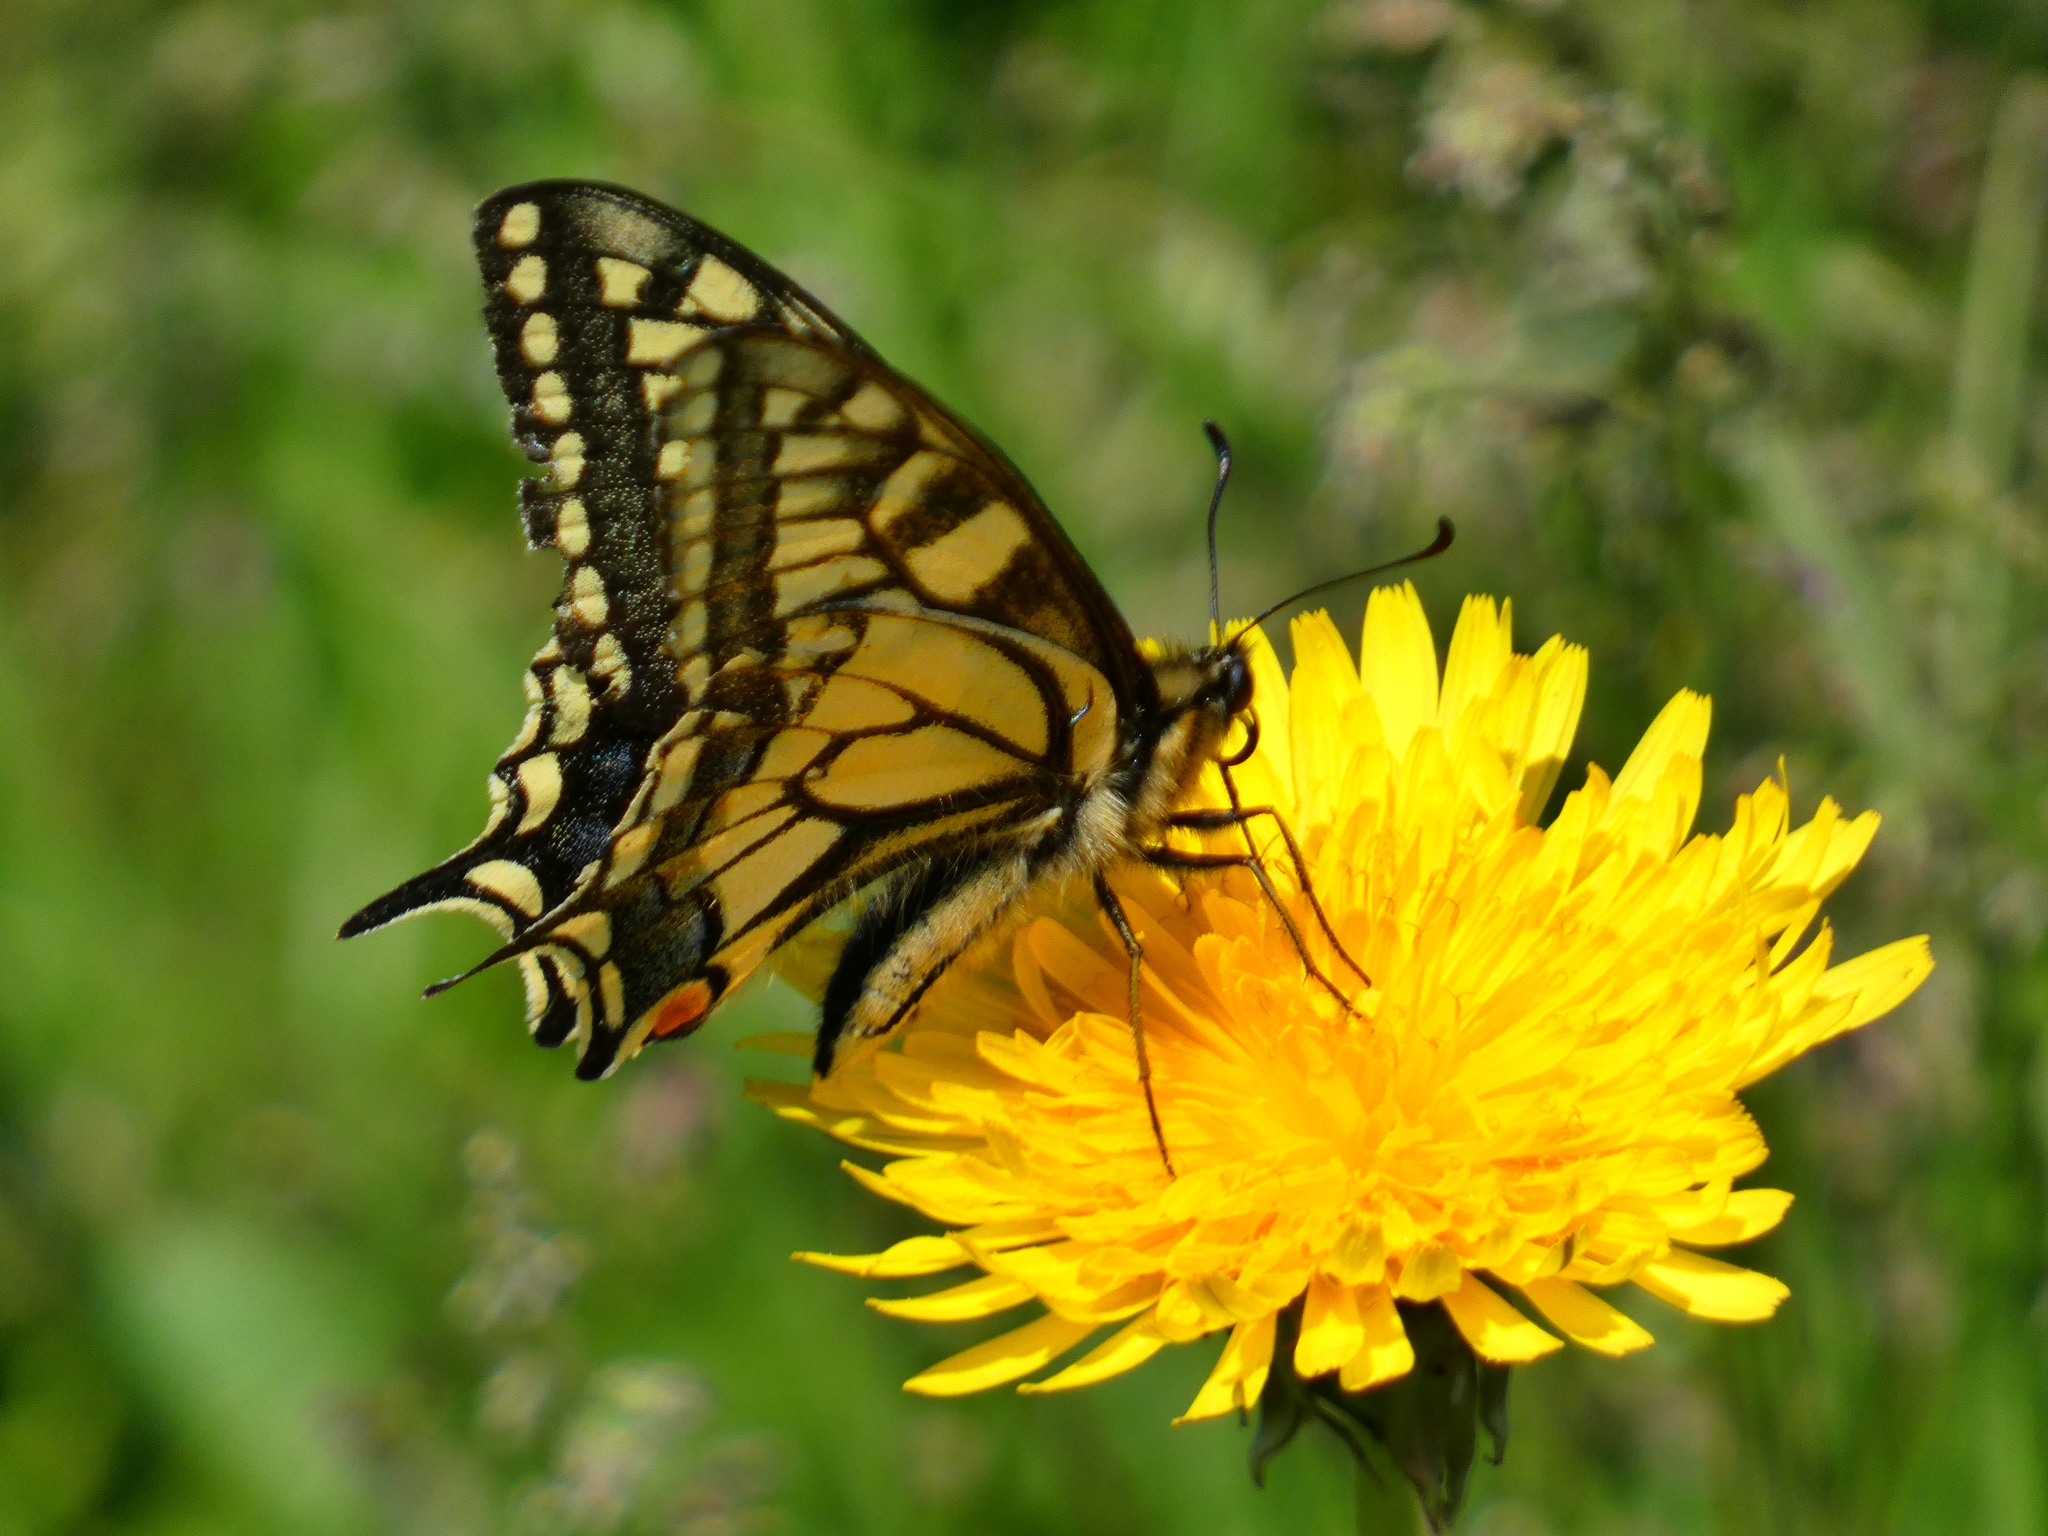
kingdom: Animalia
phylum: Arthropoda
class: Insecta
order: Lepidoptera
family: Papilionidae
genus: Papilio
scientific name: Papilio machaon
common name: Swallowtail
